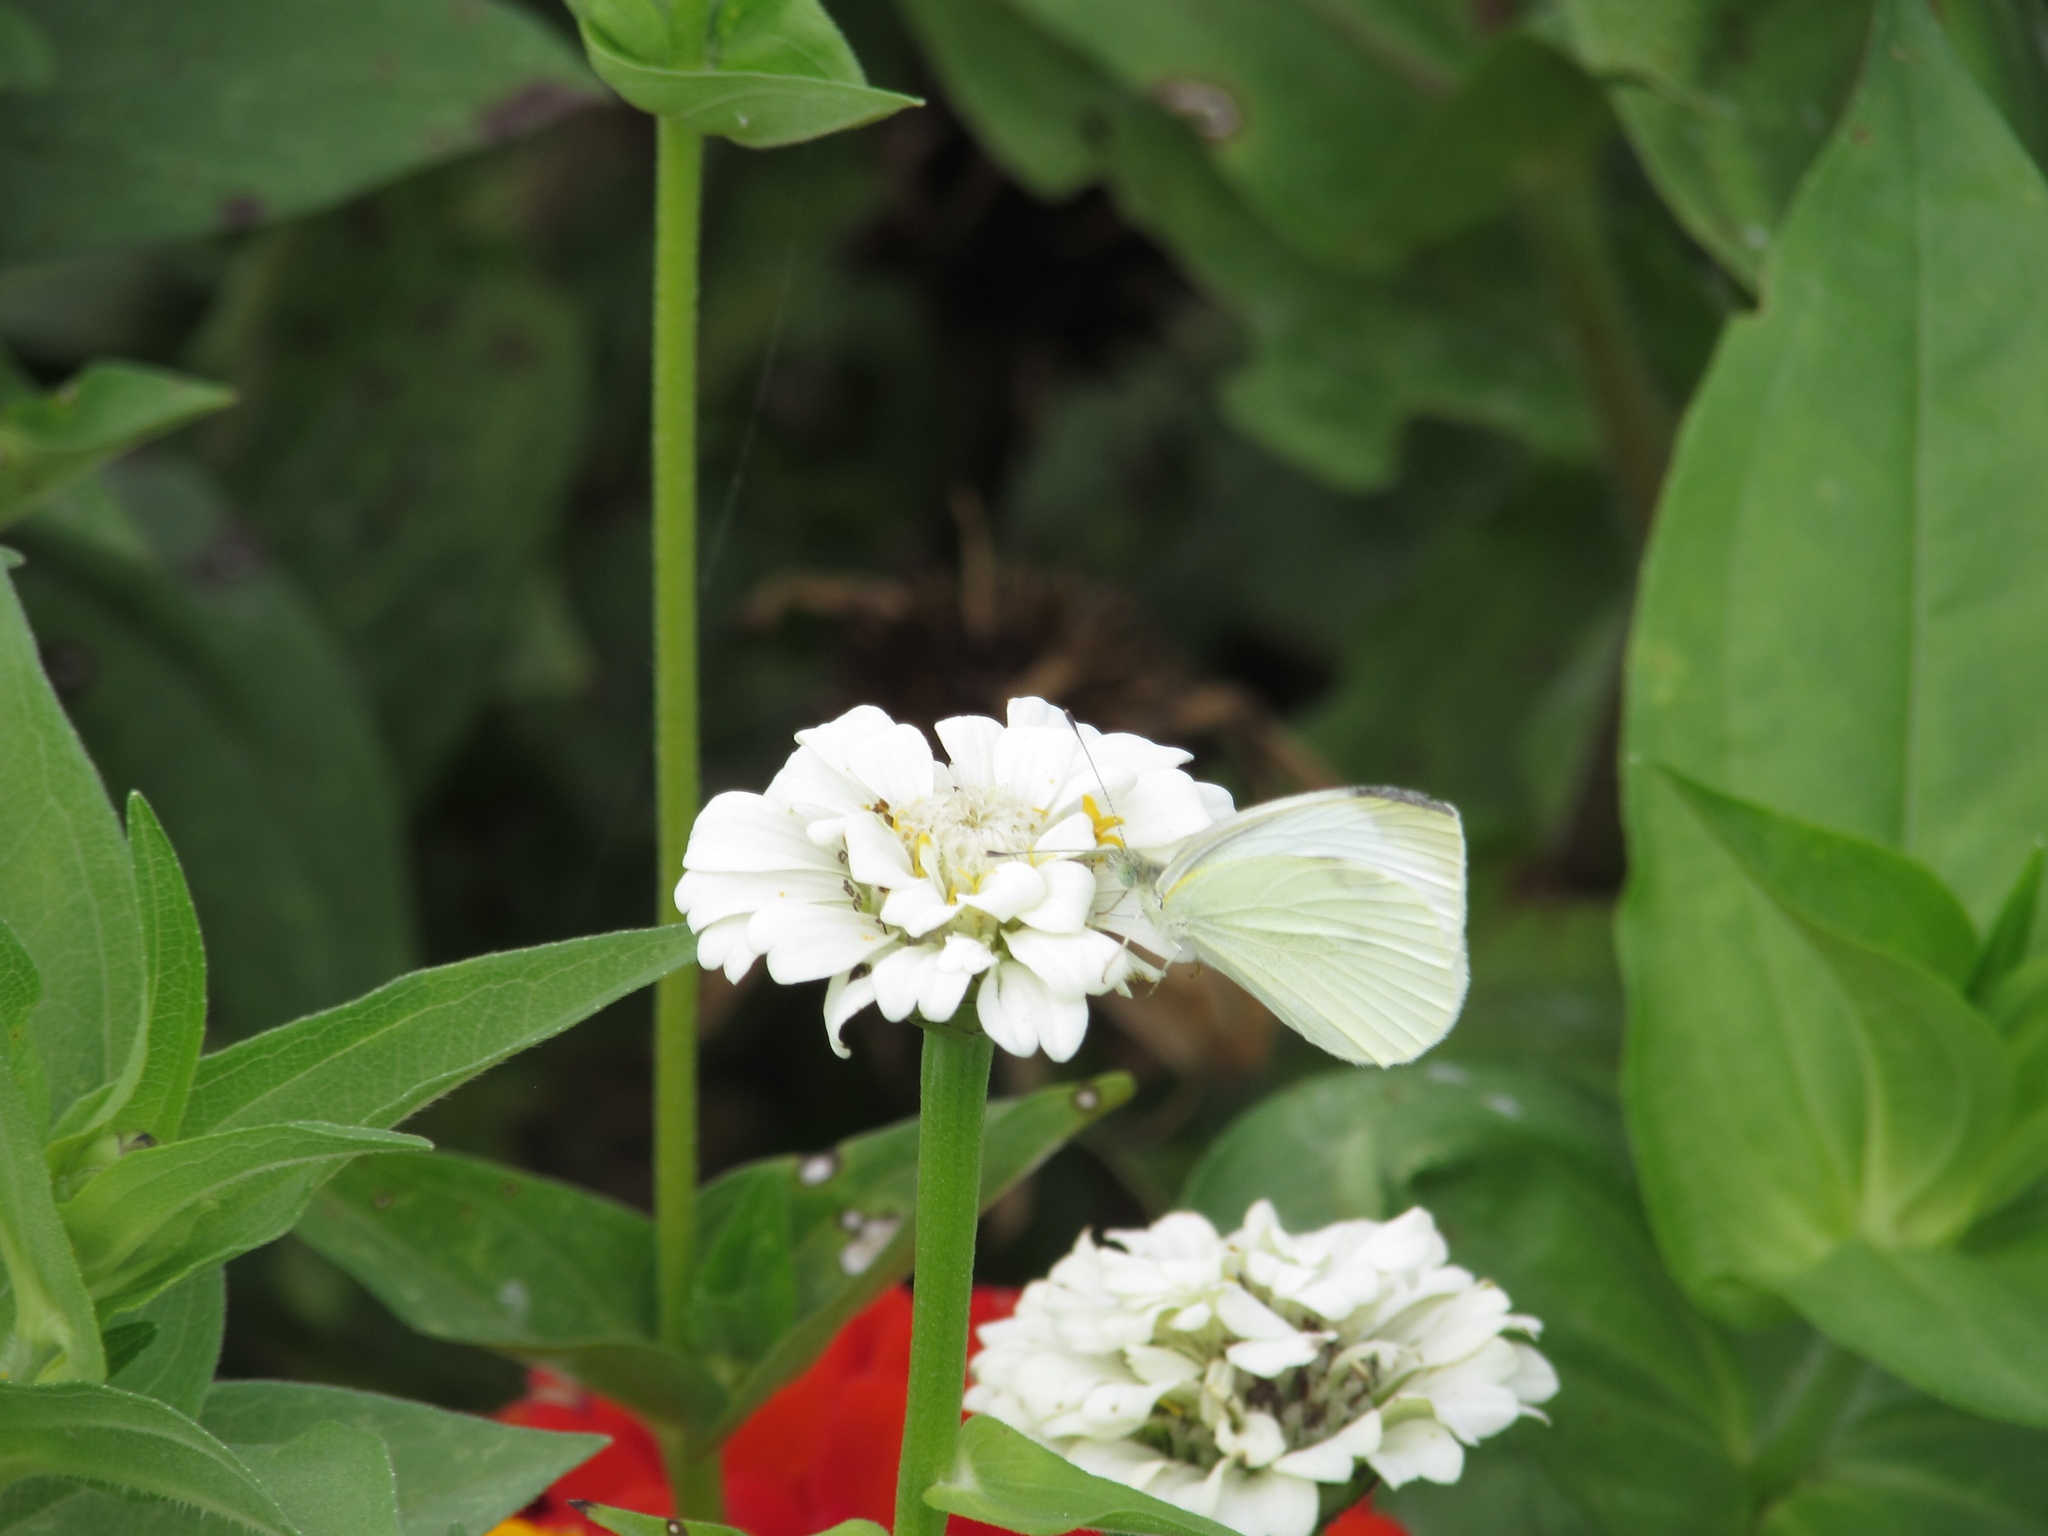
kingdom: Animalia
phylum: Arthropoda
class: Insecta
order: Lepidoptera
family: Pieridae
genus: Pieris
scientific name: Pieris rapae
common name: Small white
